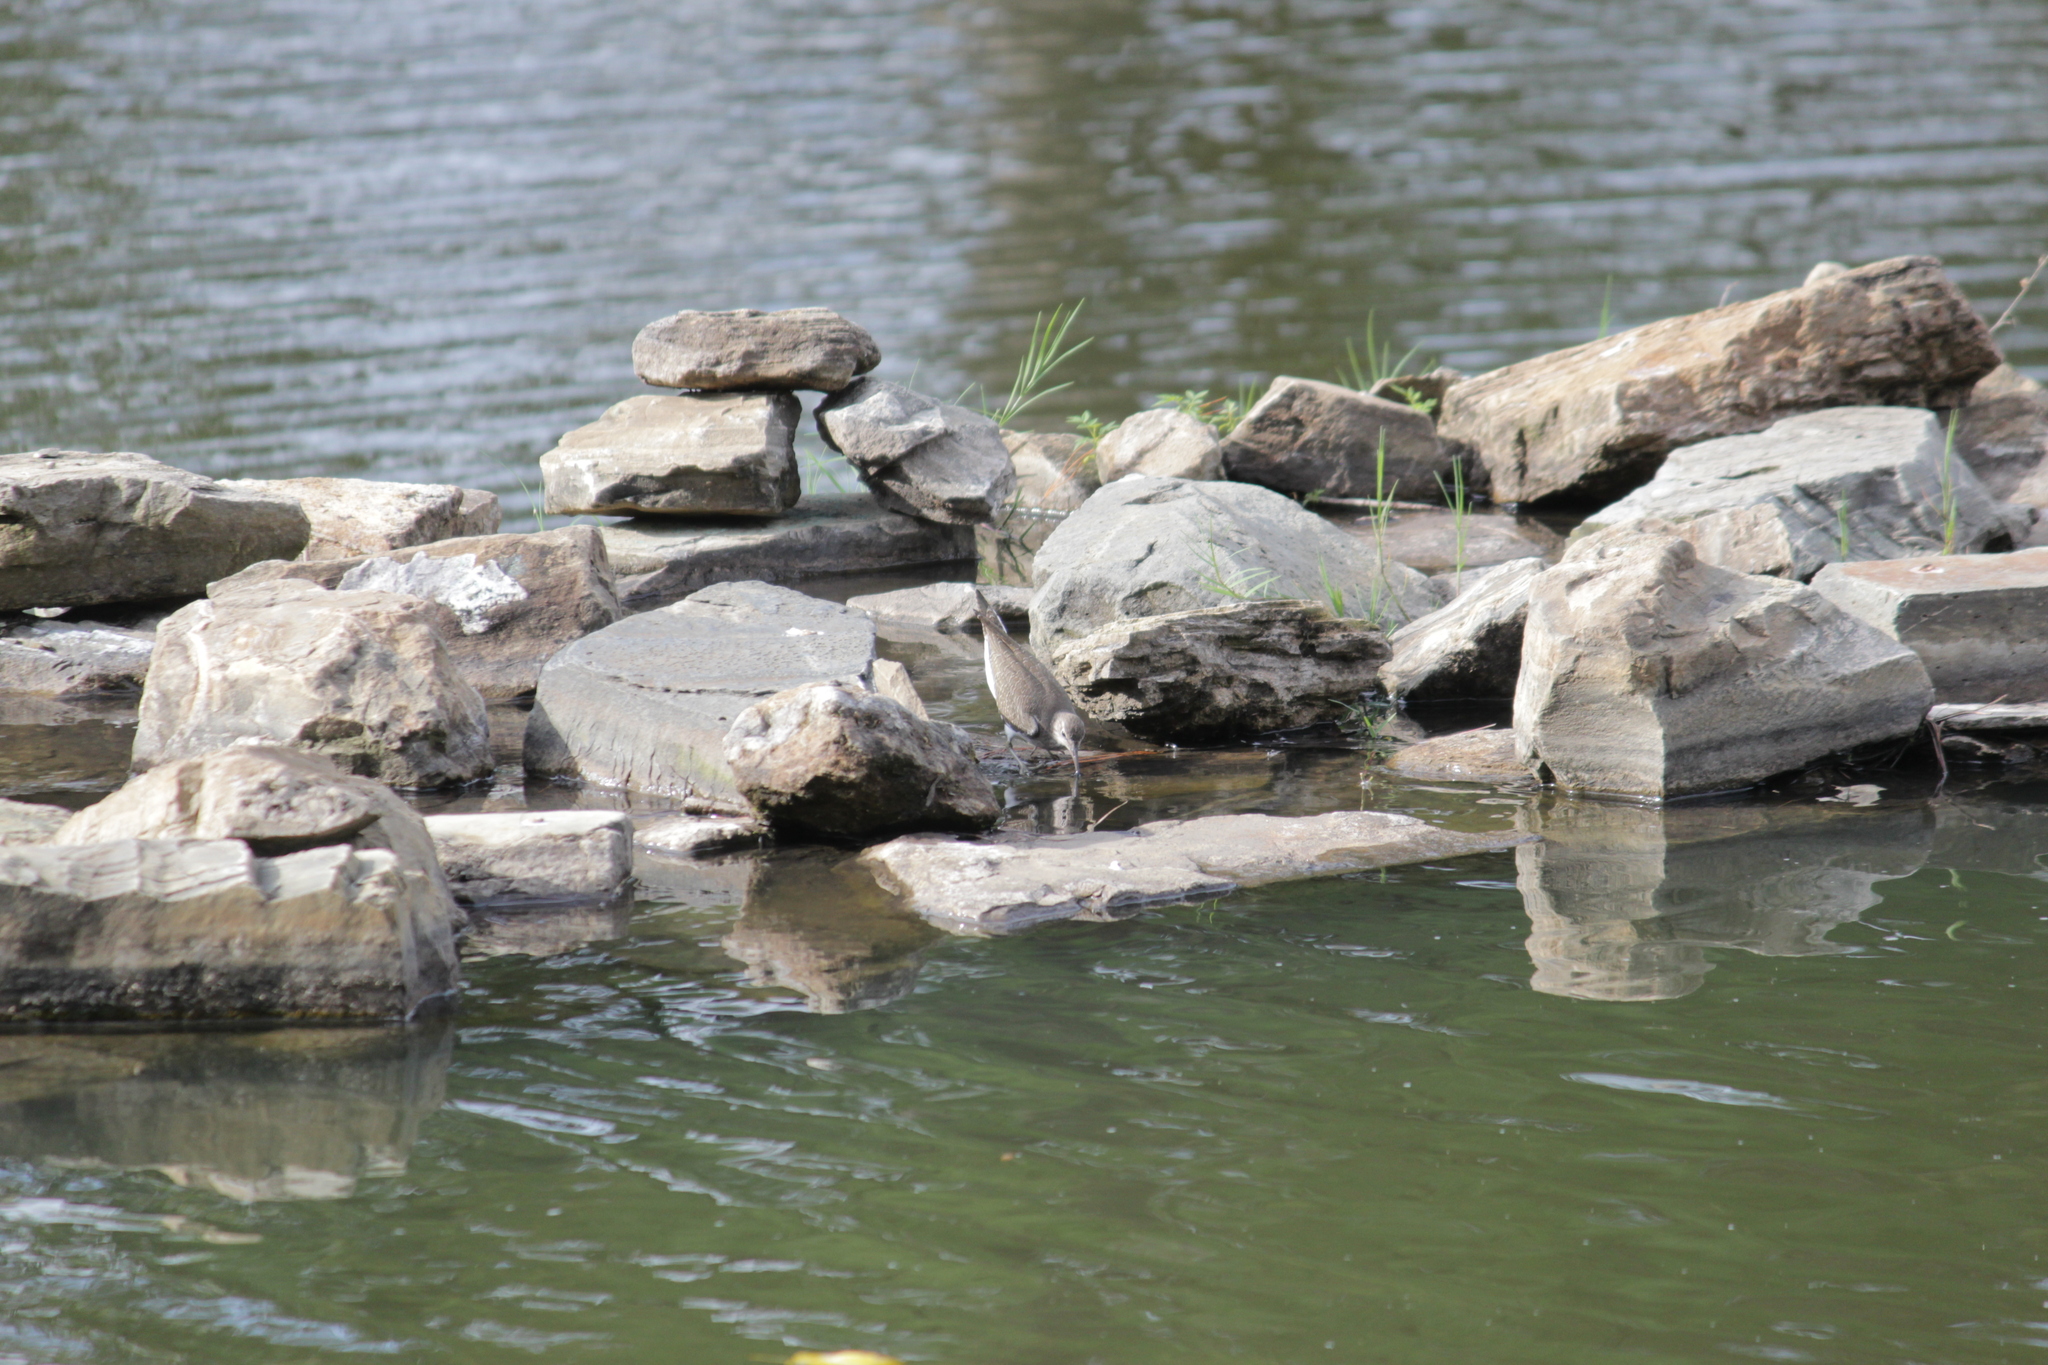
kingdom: Animalia
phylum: Chordata
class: Aves
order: Charadriiformes
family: Scolopacidae
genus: Actitis
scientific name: Actitis hypoleucos
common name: Common sandpiper
